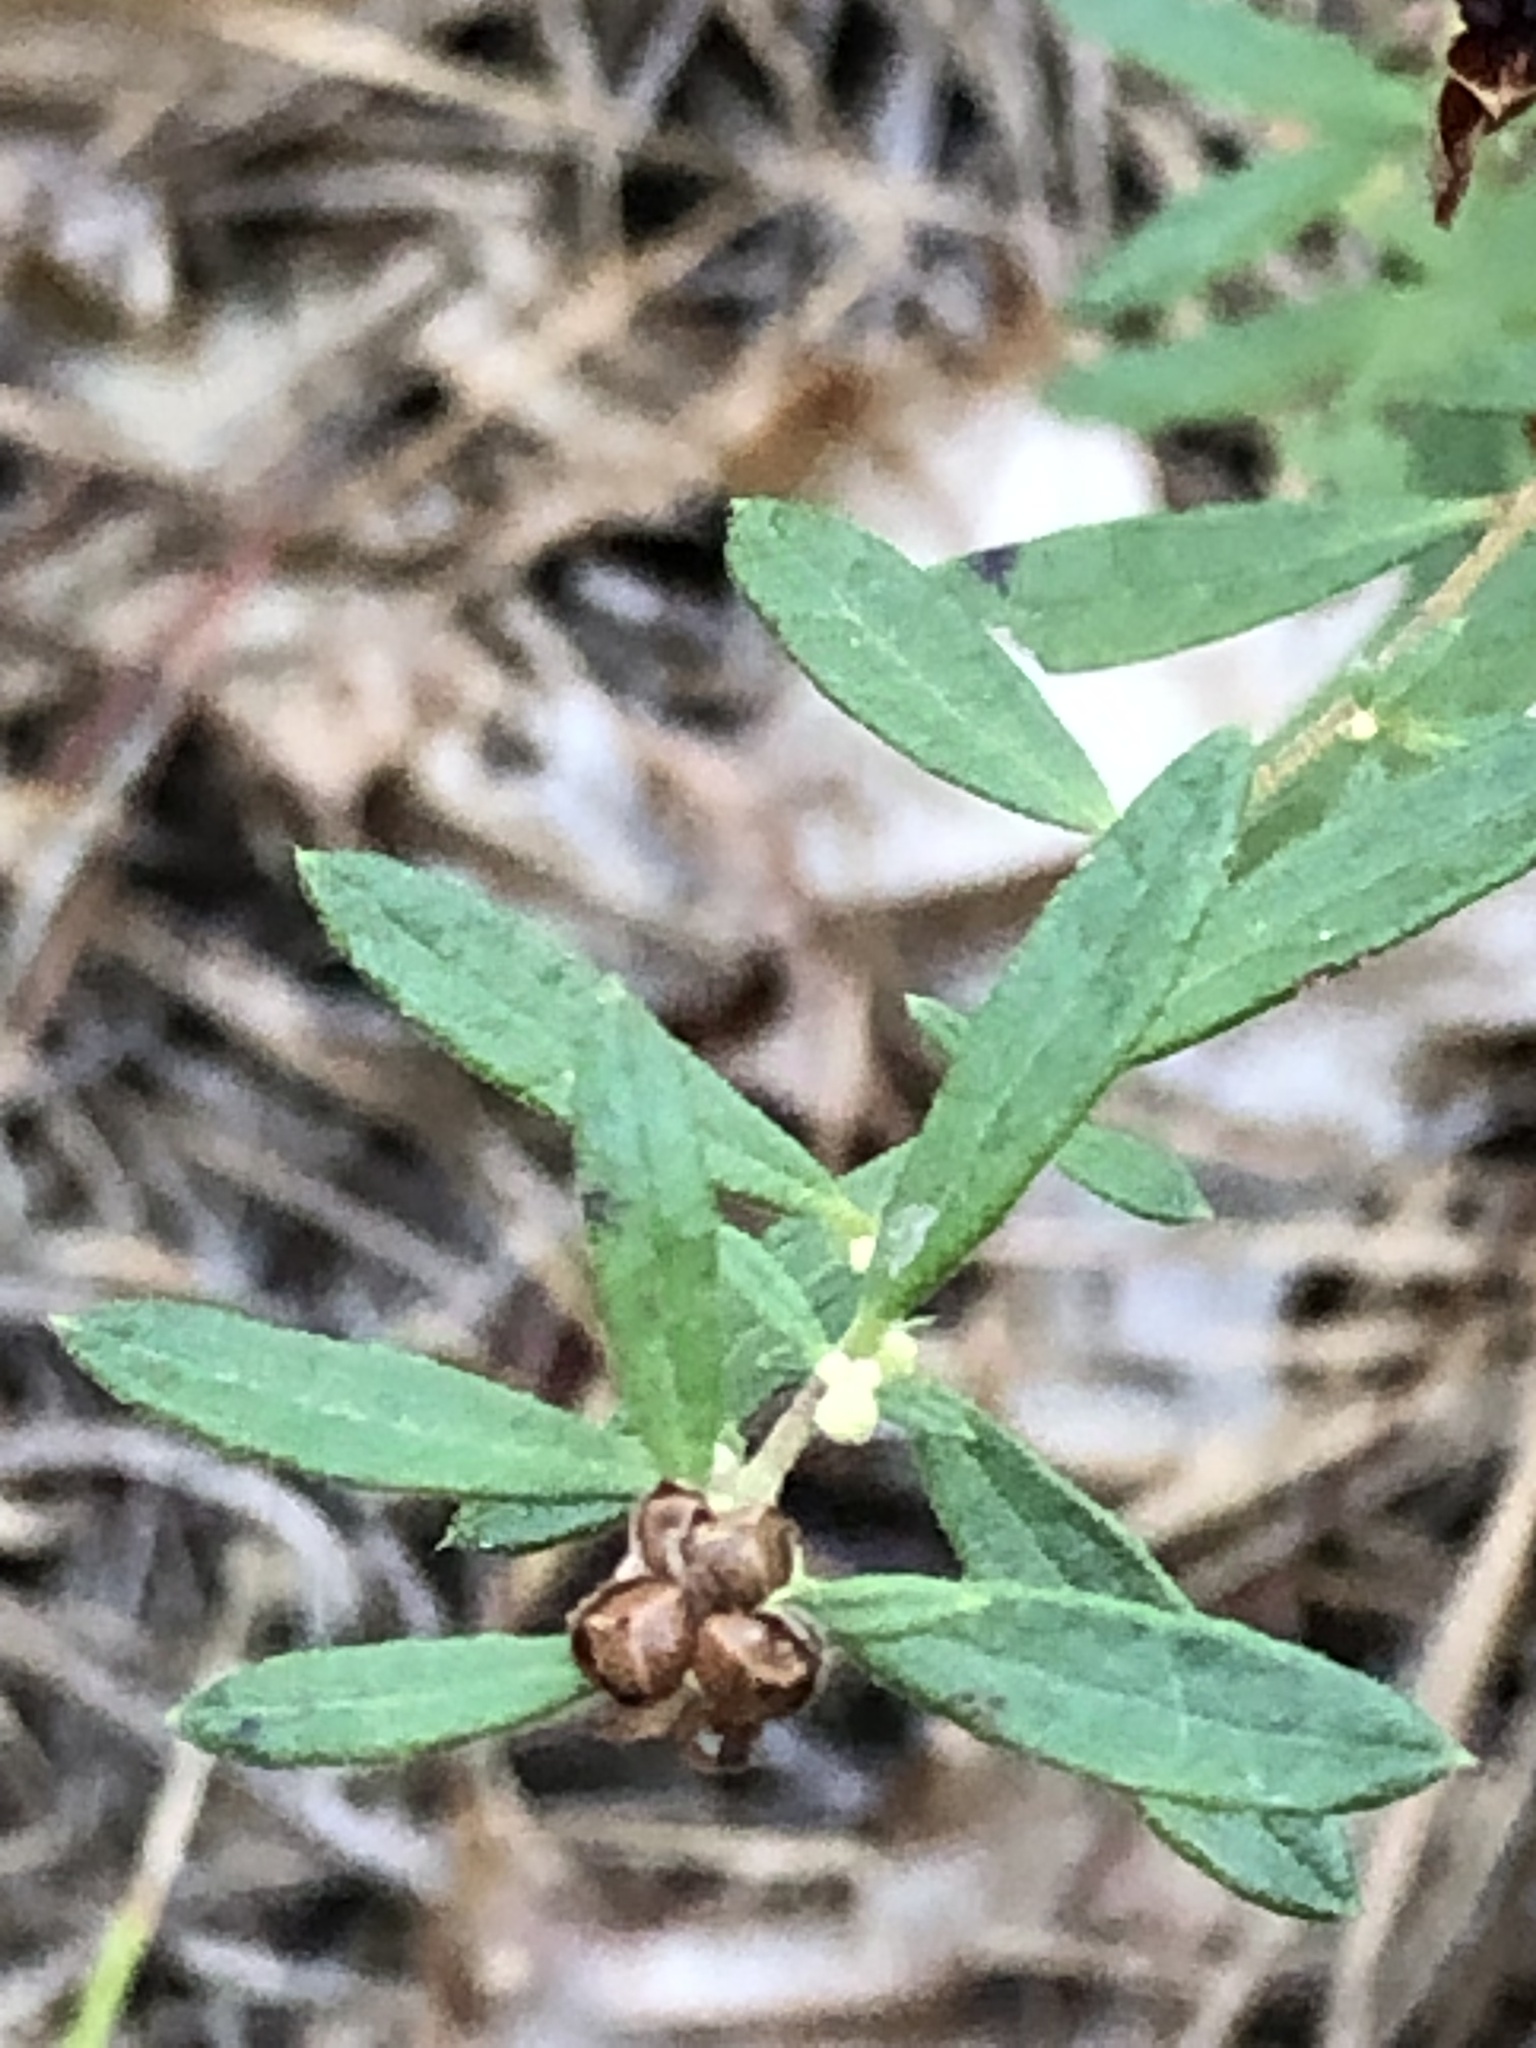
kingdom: Plantae
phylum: Tracheophyta
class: Magnoliopsida
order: Malvales
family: Cistaceae
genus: Crocanthemum
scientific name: Crocanthemum dumosum
